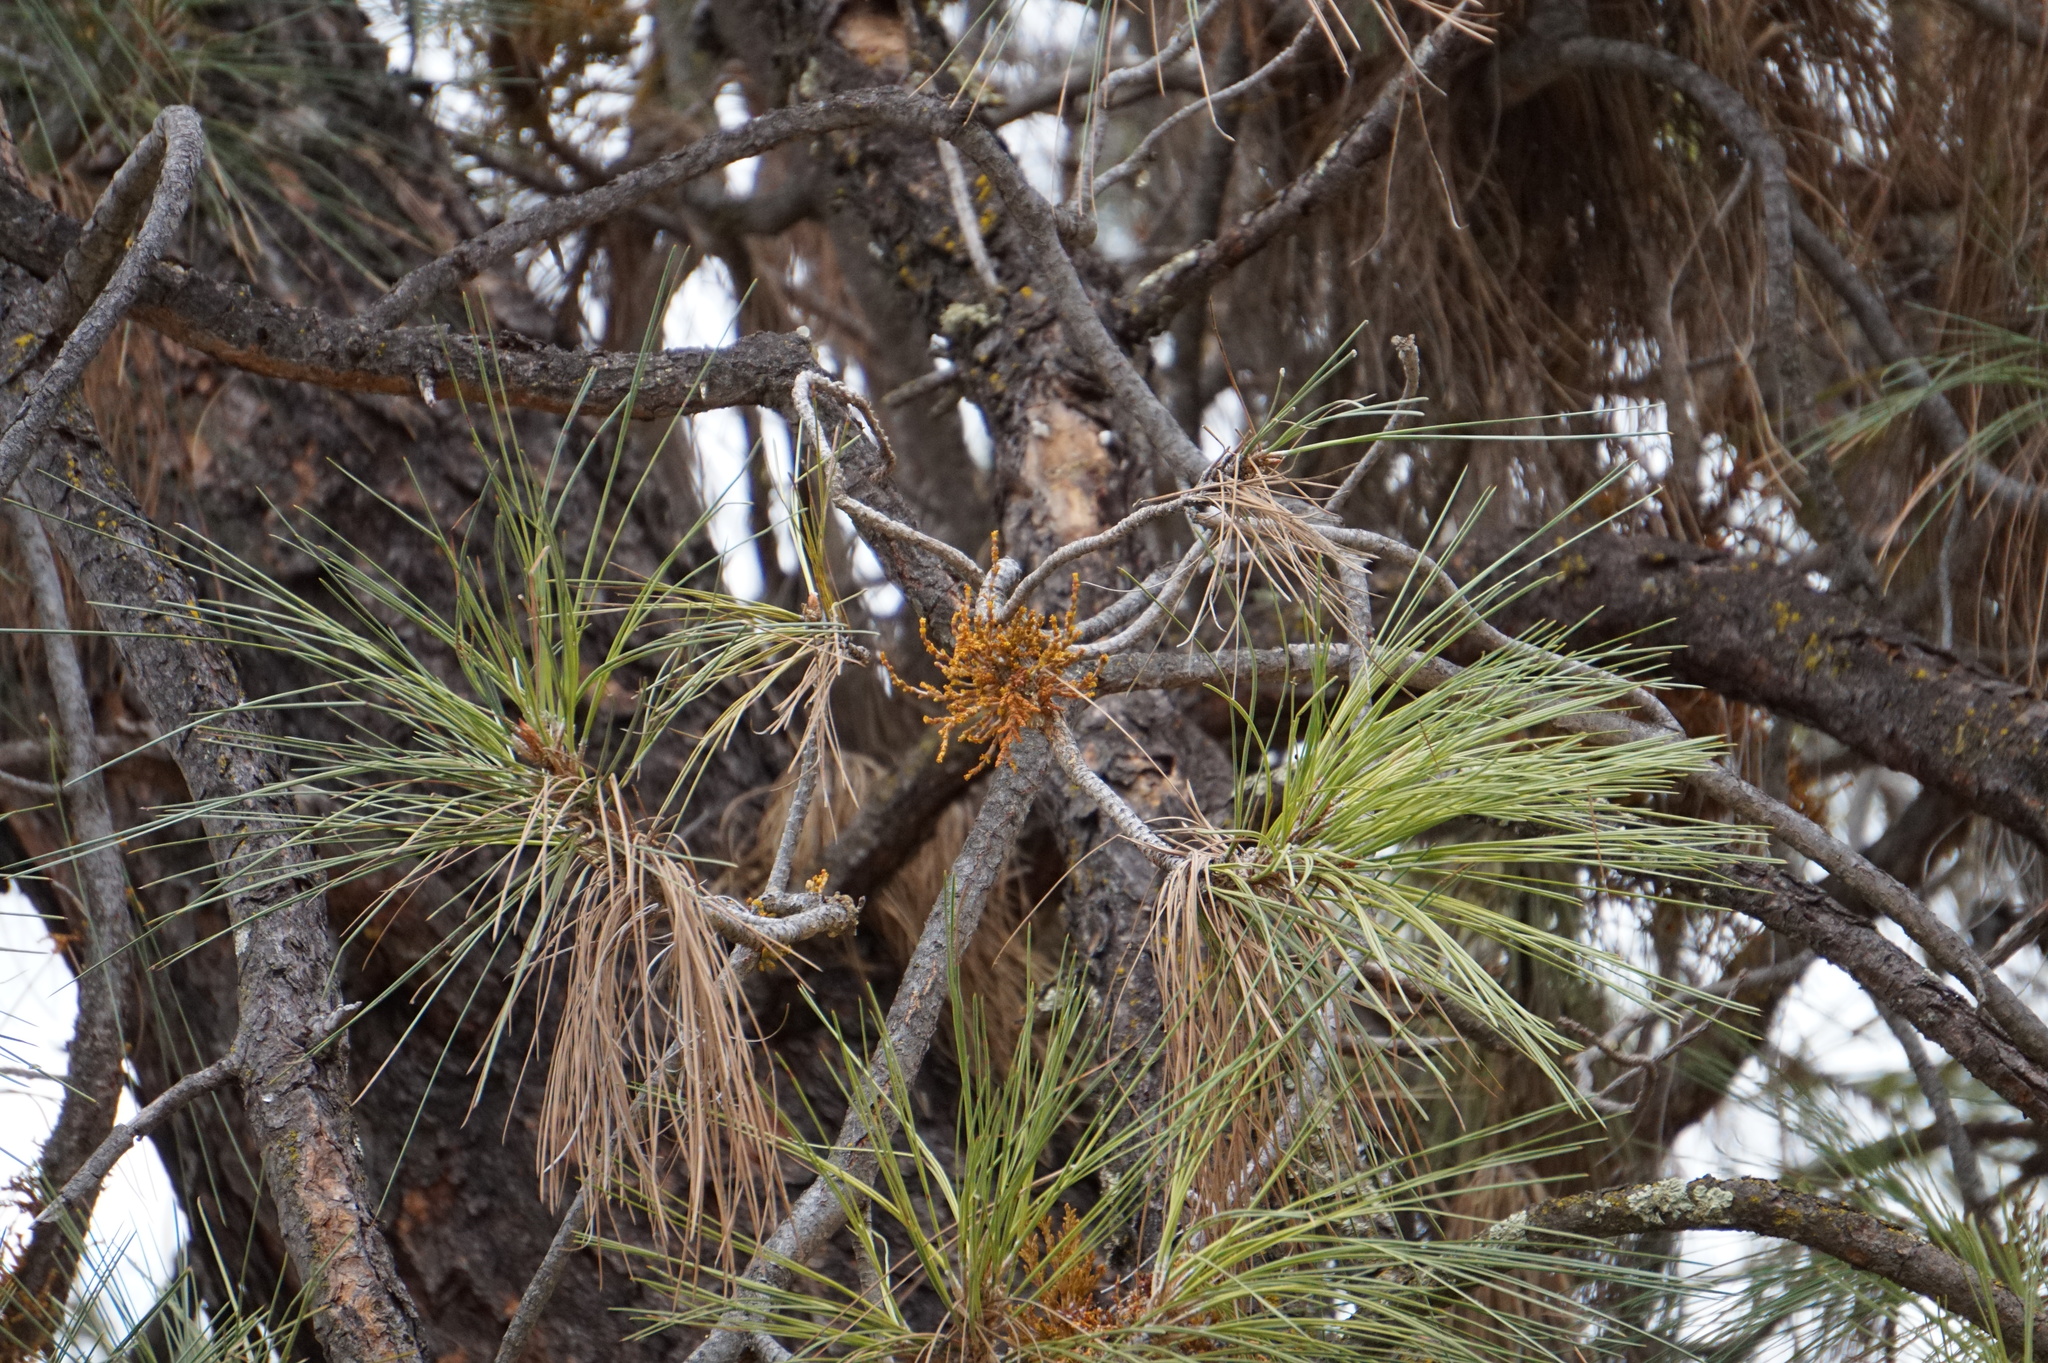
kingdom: Plantae
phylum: Tracheophyta
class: Magnoliopsida
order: Santalales
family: Viscaceae
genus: Arceuthobium
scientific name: Arceuthobium campylopodum
